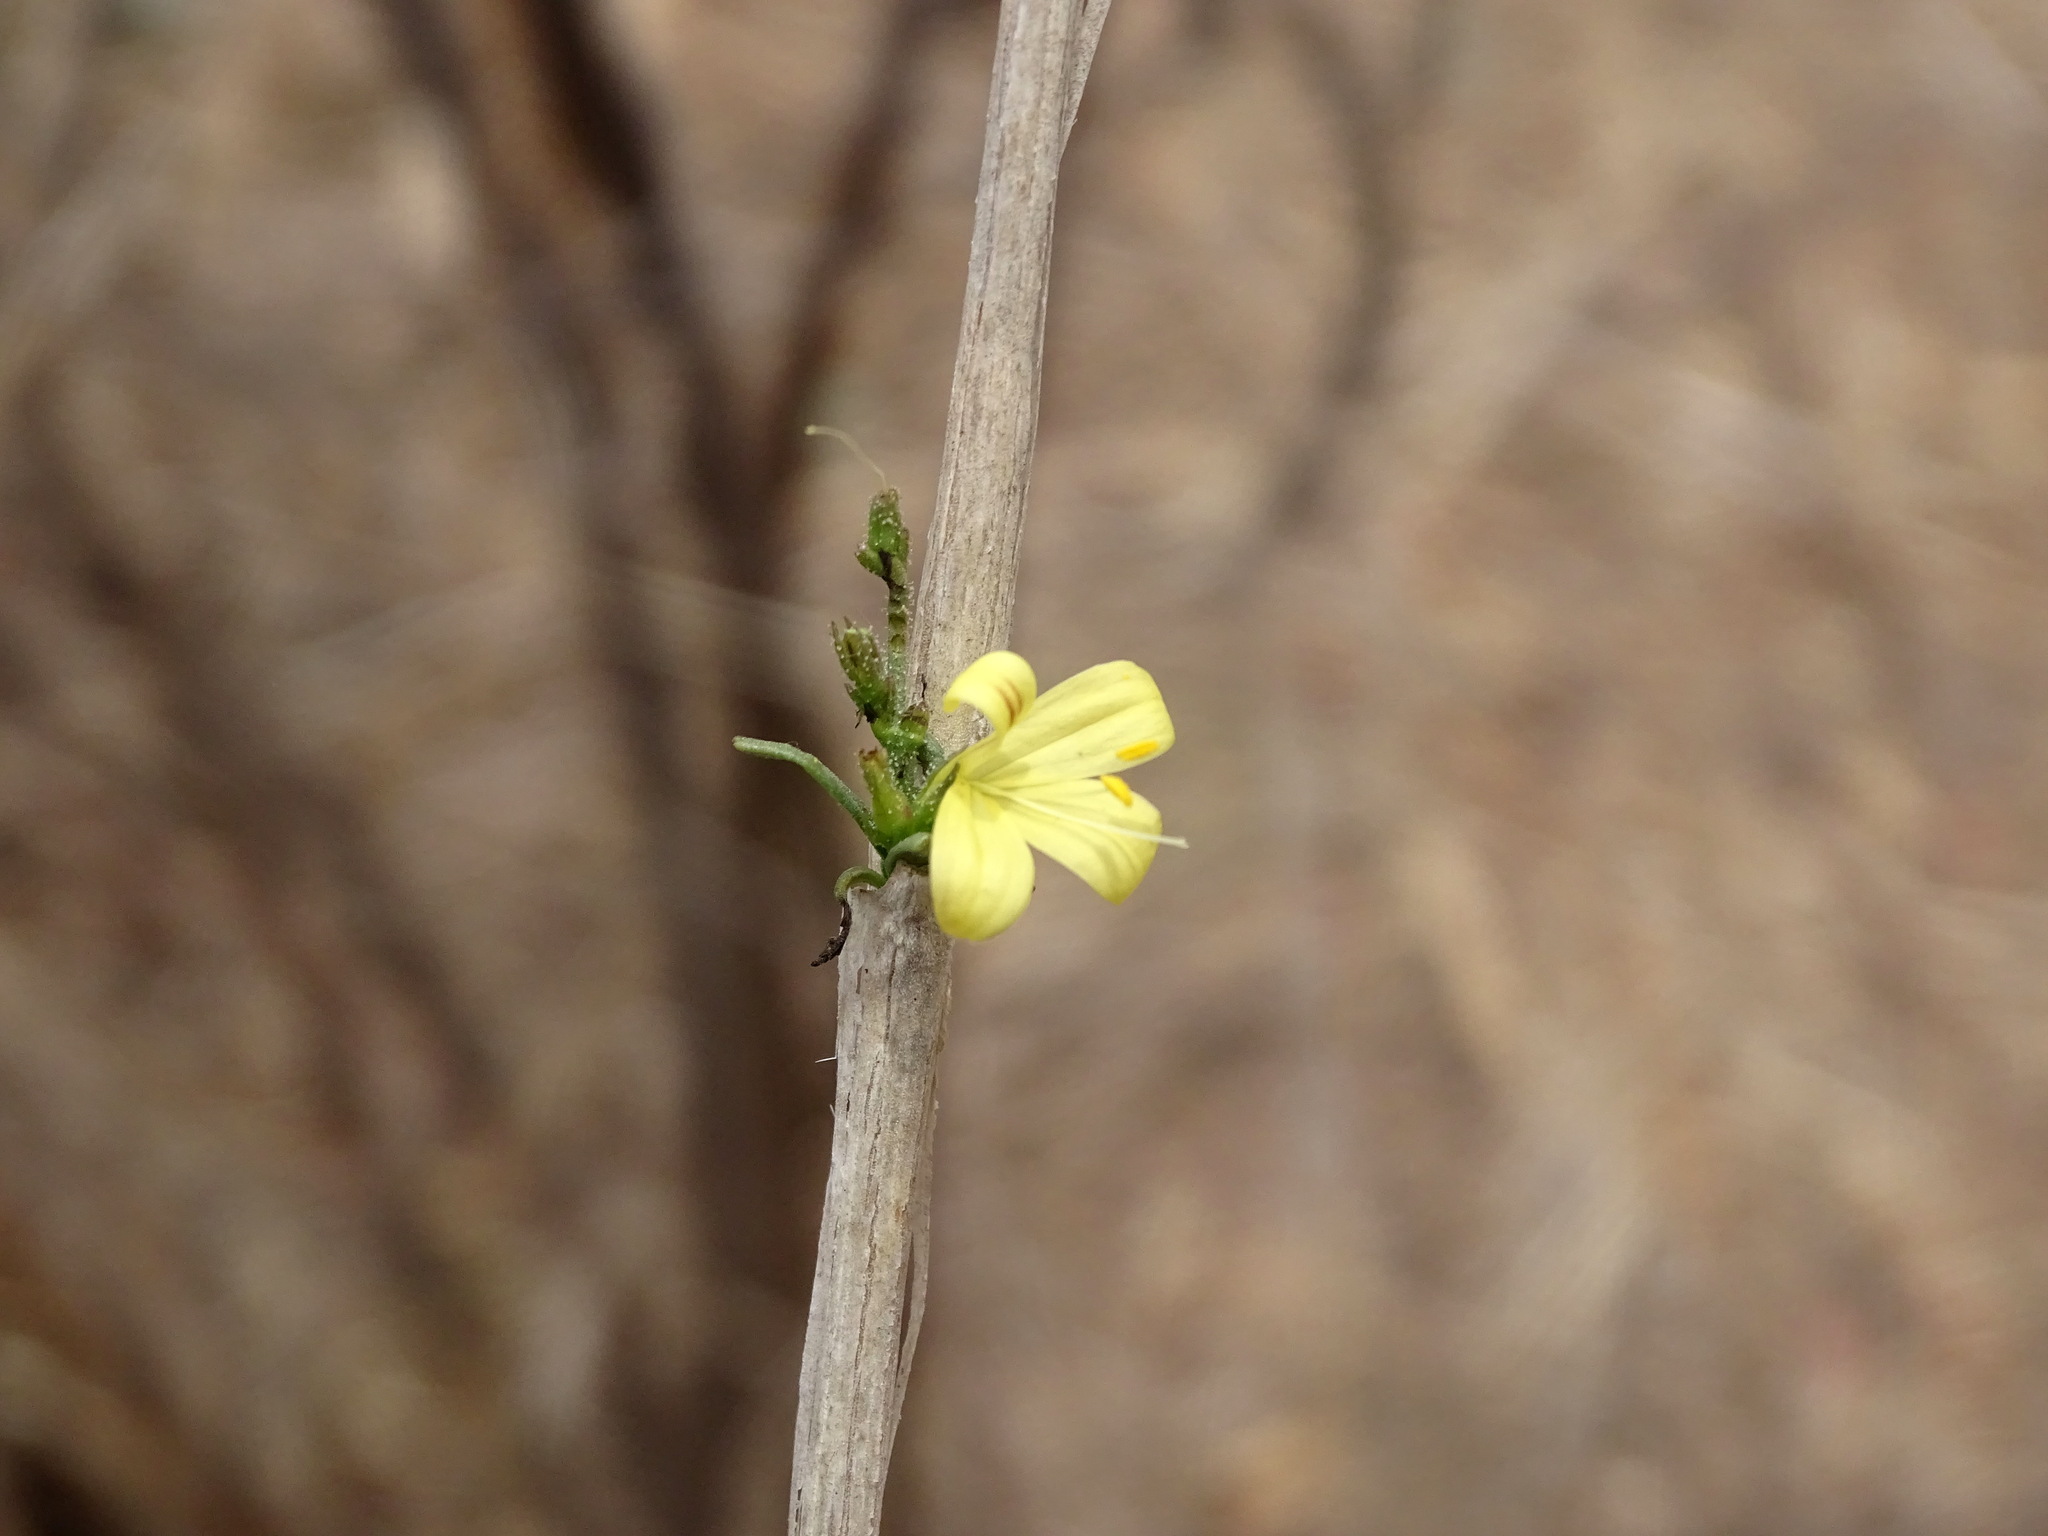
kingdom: Plantae
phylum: Tracheophyta
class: Magnoliopsida
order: Lamiales
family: Acanthaceae
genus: Carlowrightia
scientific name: Carlowrightia pectinata
